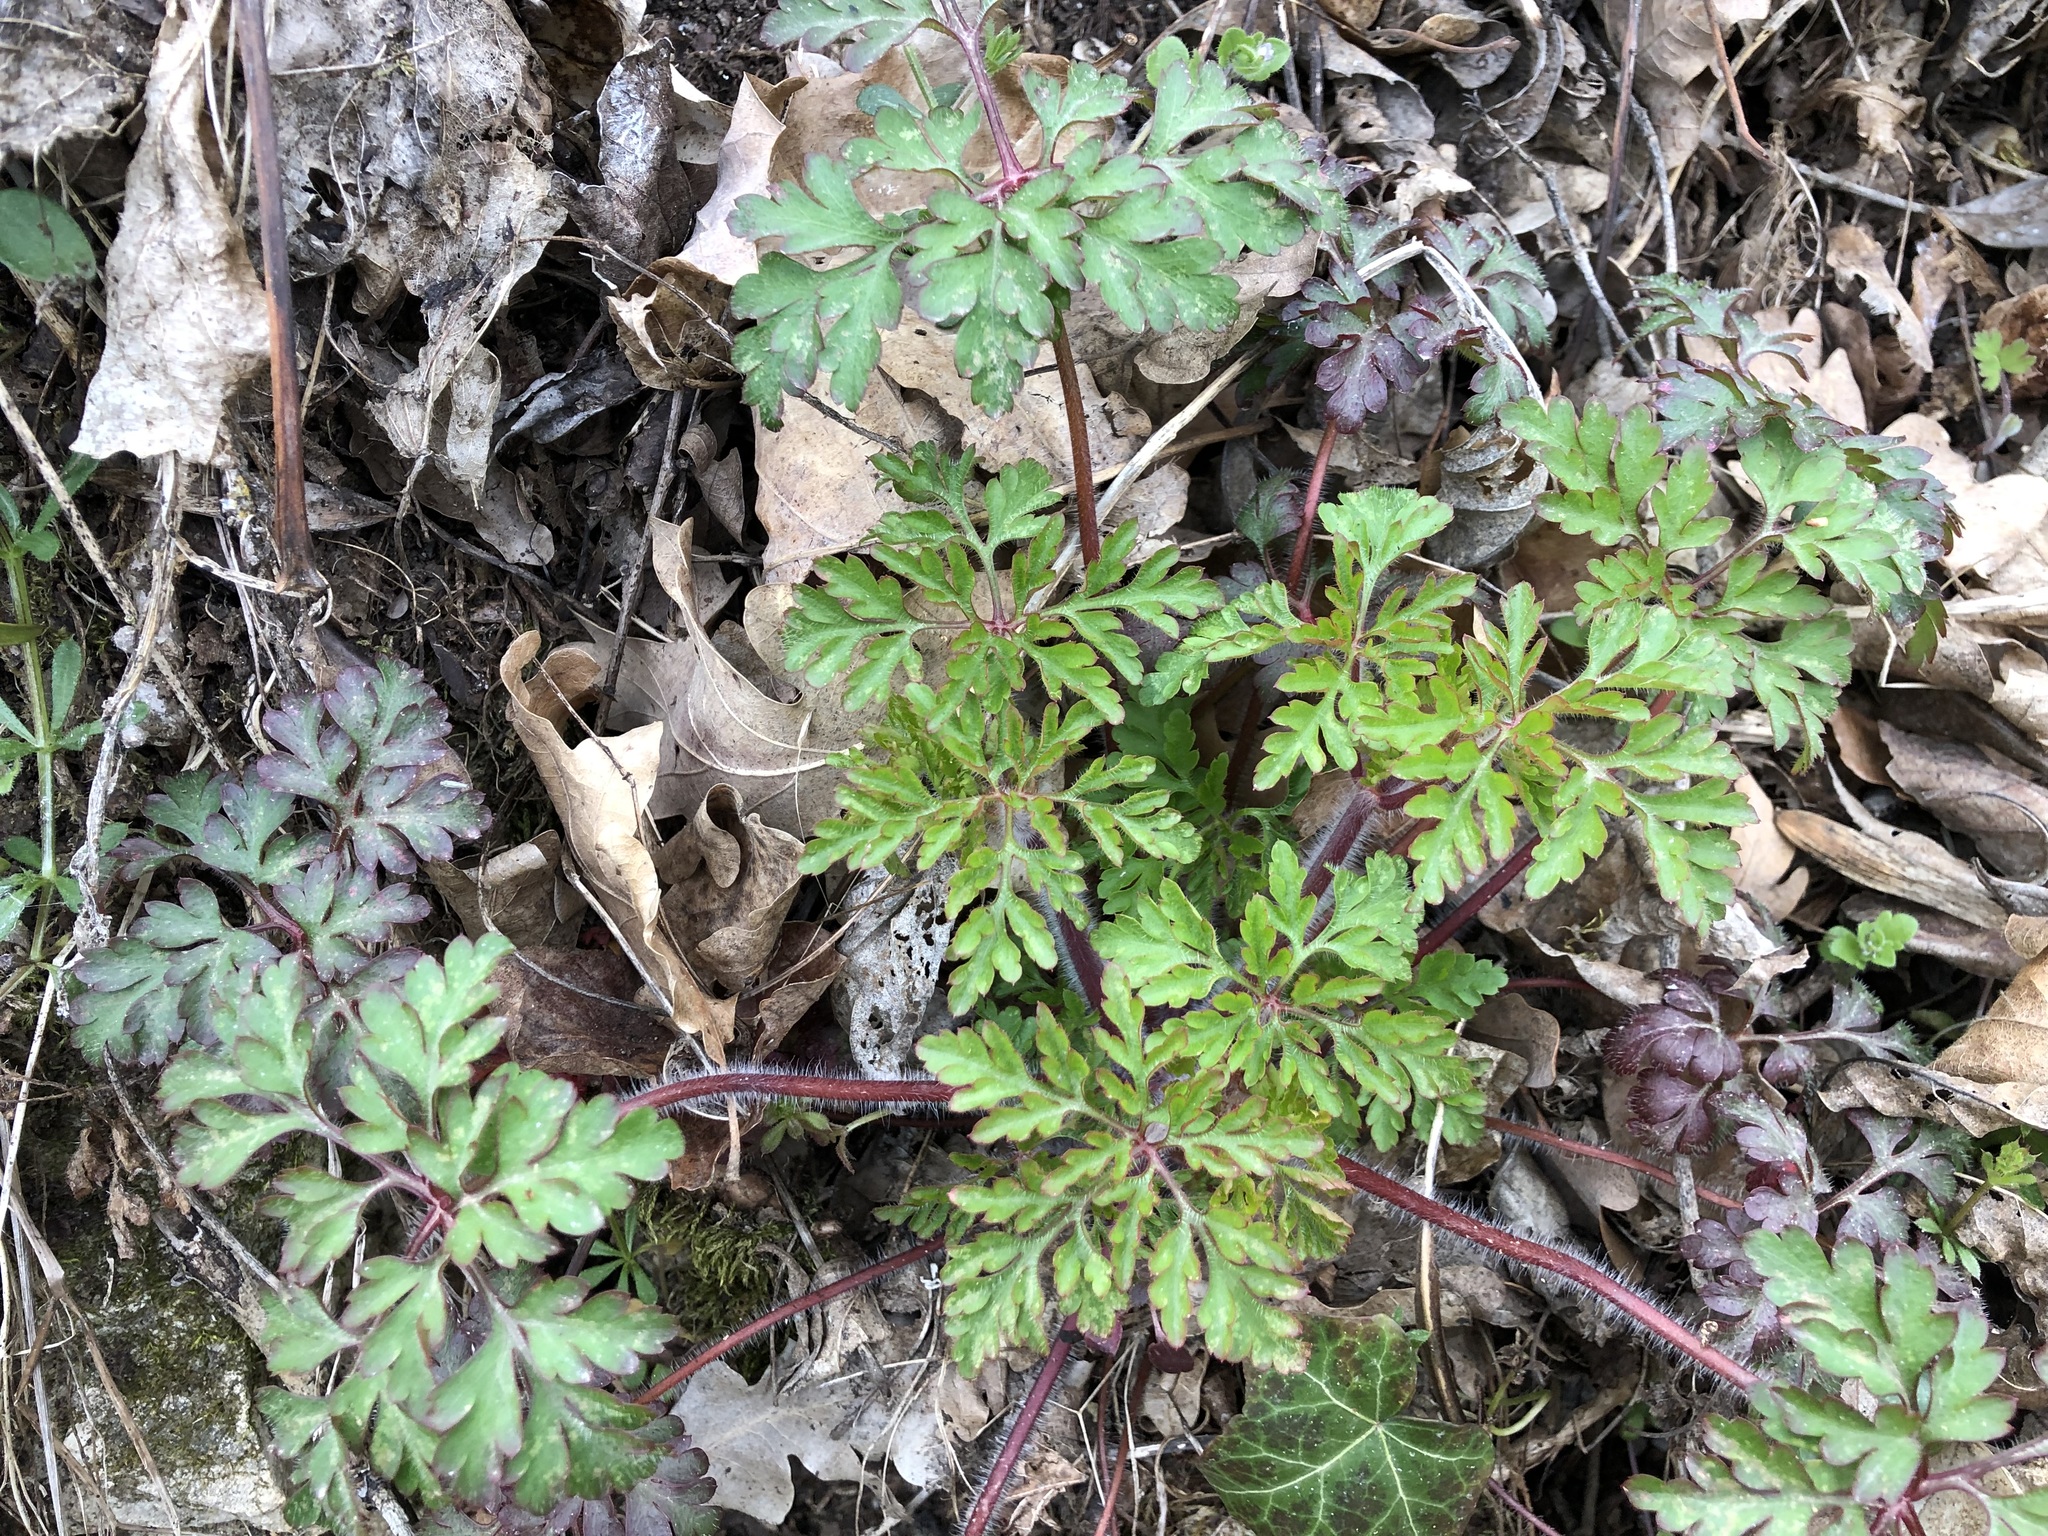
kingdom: Plantae
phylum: Tracheophyta
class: Magnoliopsida
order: Geraniales
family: Geraniaceae
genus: Geranium
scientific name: Geranium robertianum
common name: Herb-robert
